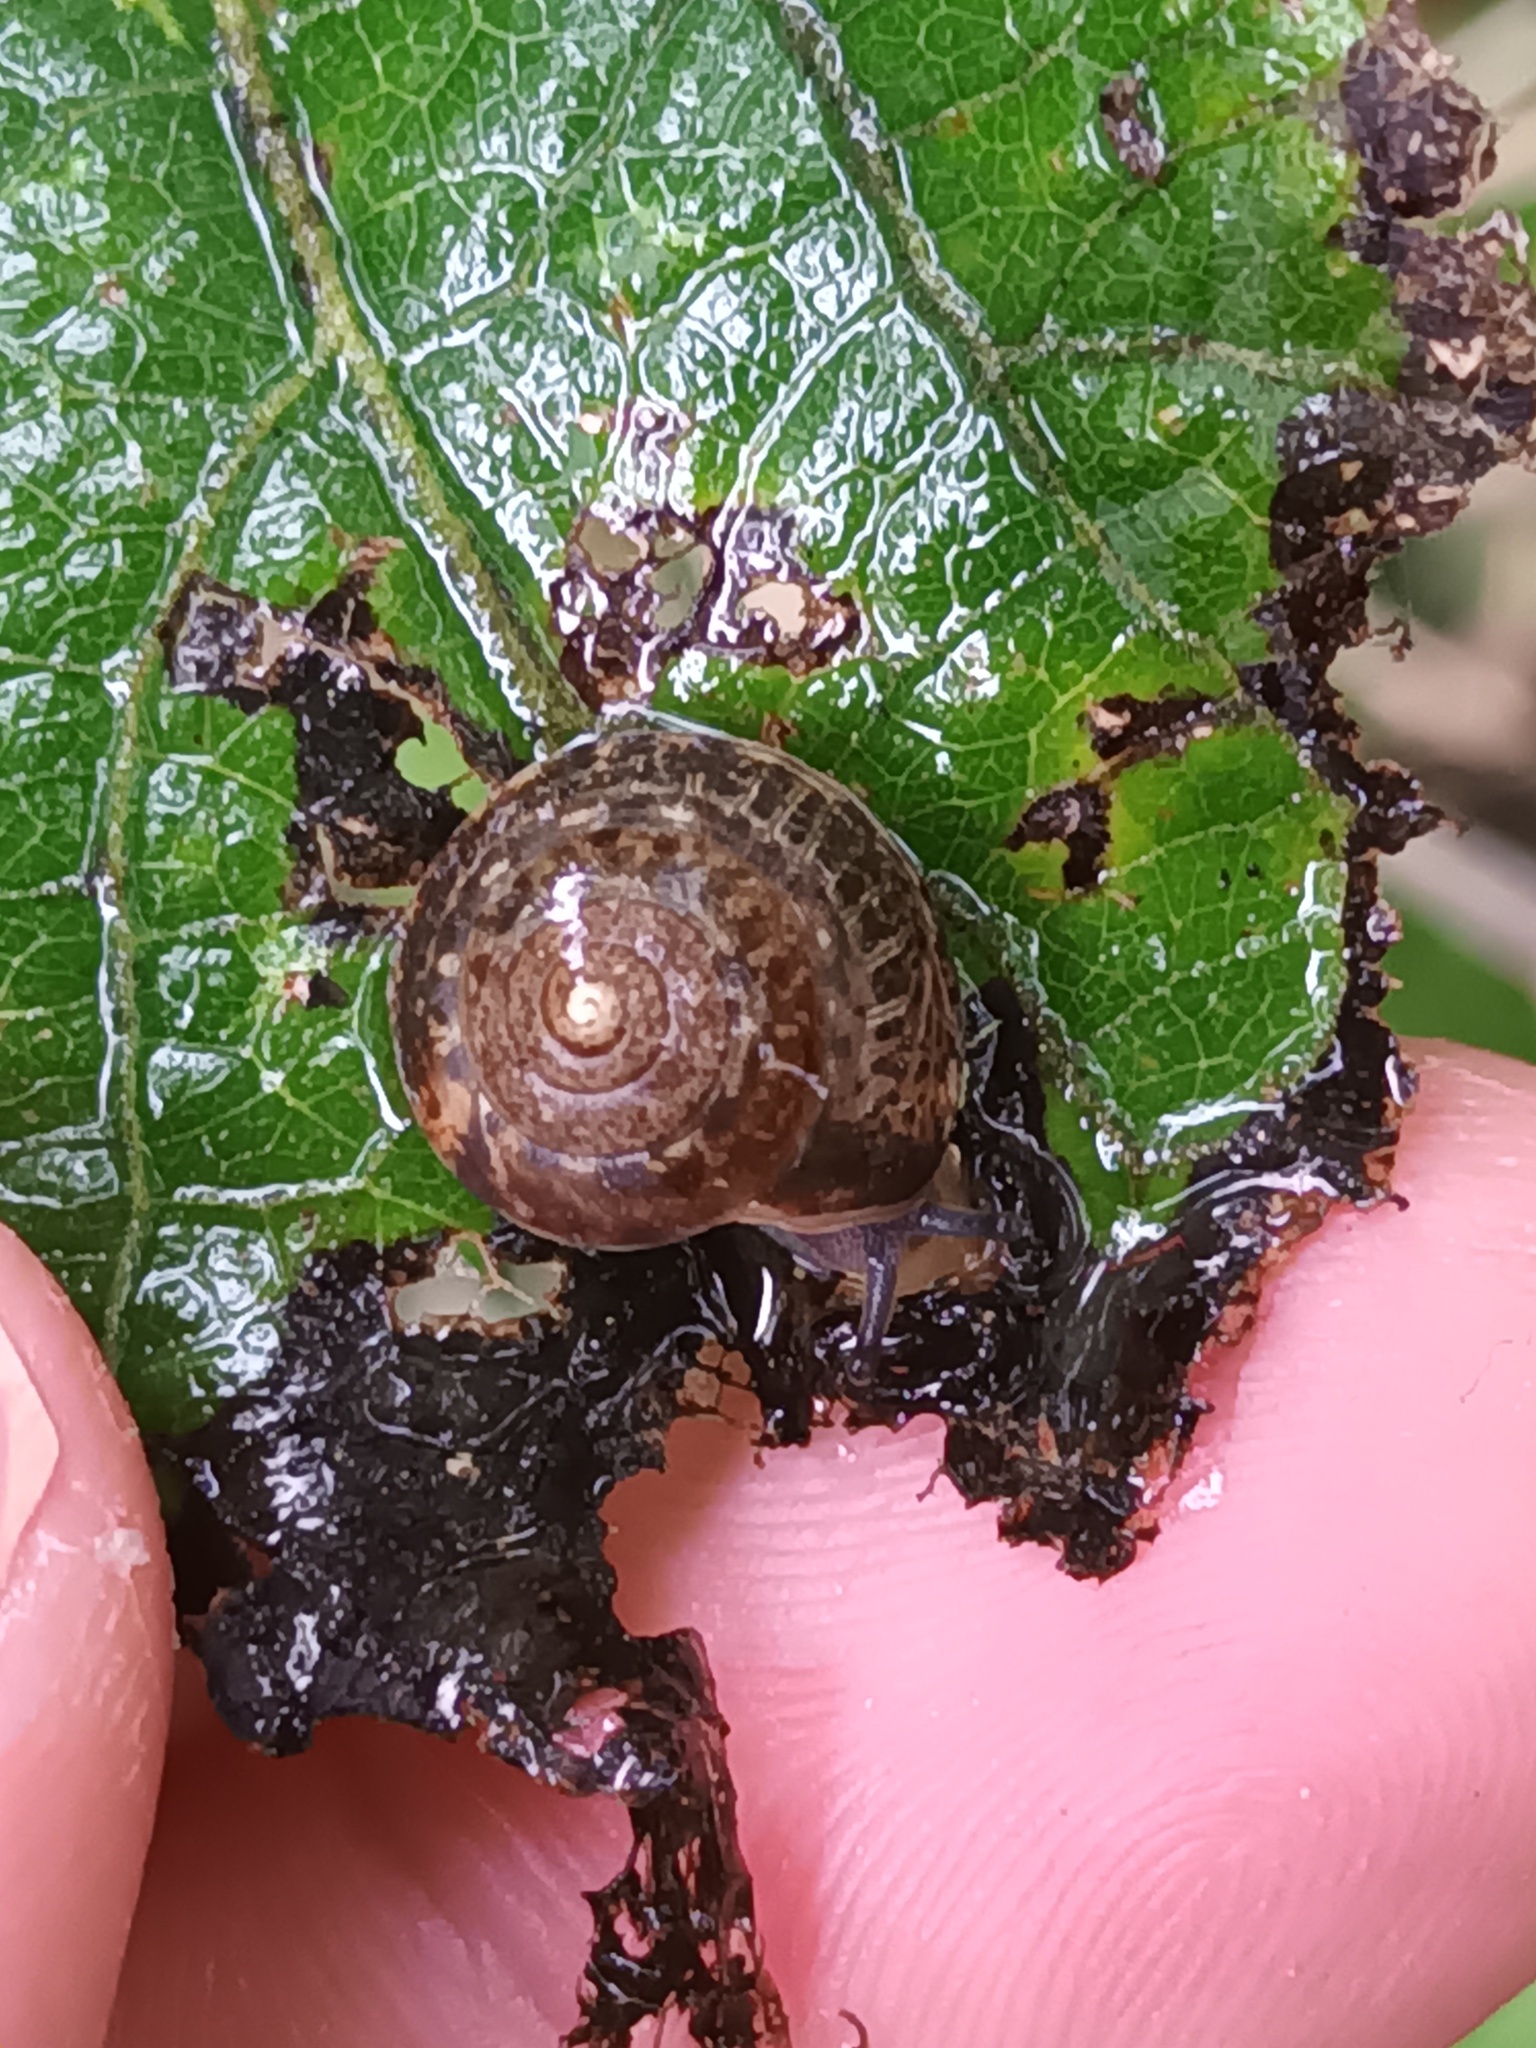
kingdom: Animalia
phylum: Mollusca
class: Gastropoda
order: Stylommatophora
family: Hygromiidae
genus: Hygromia
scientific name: Hygromia cinctella
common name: Girdled snail
